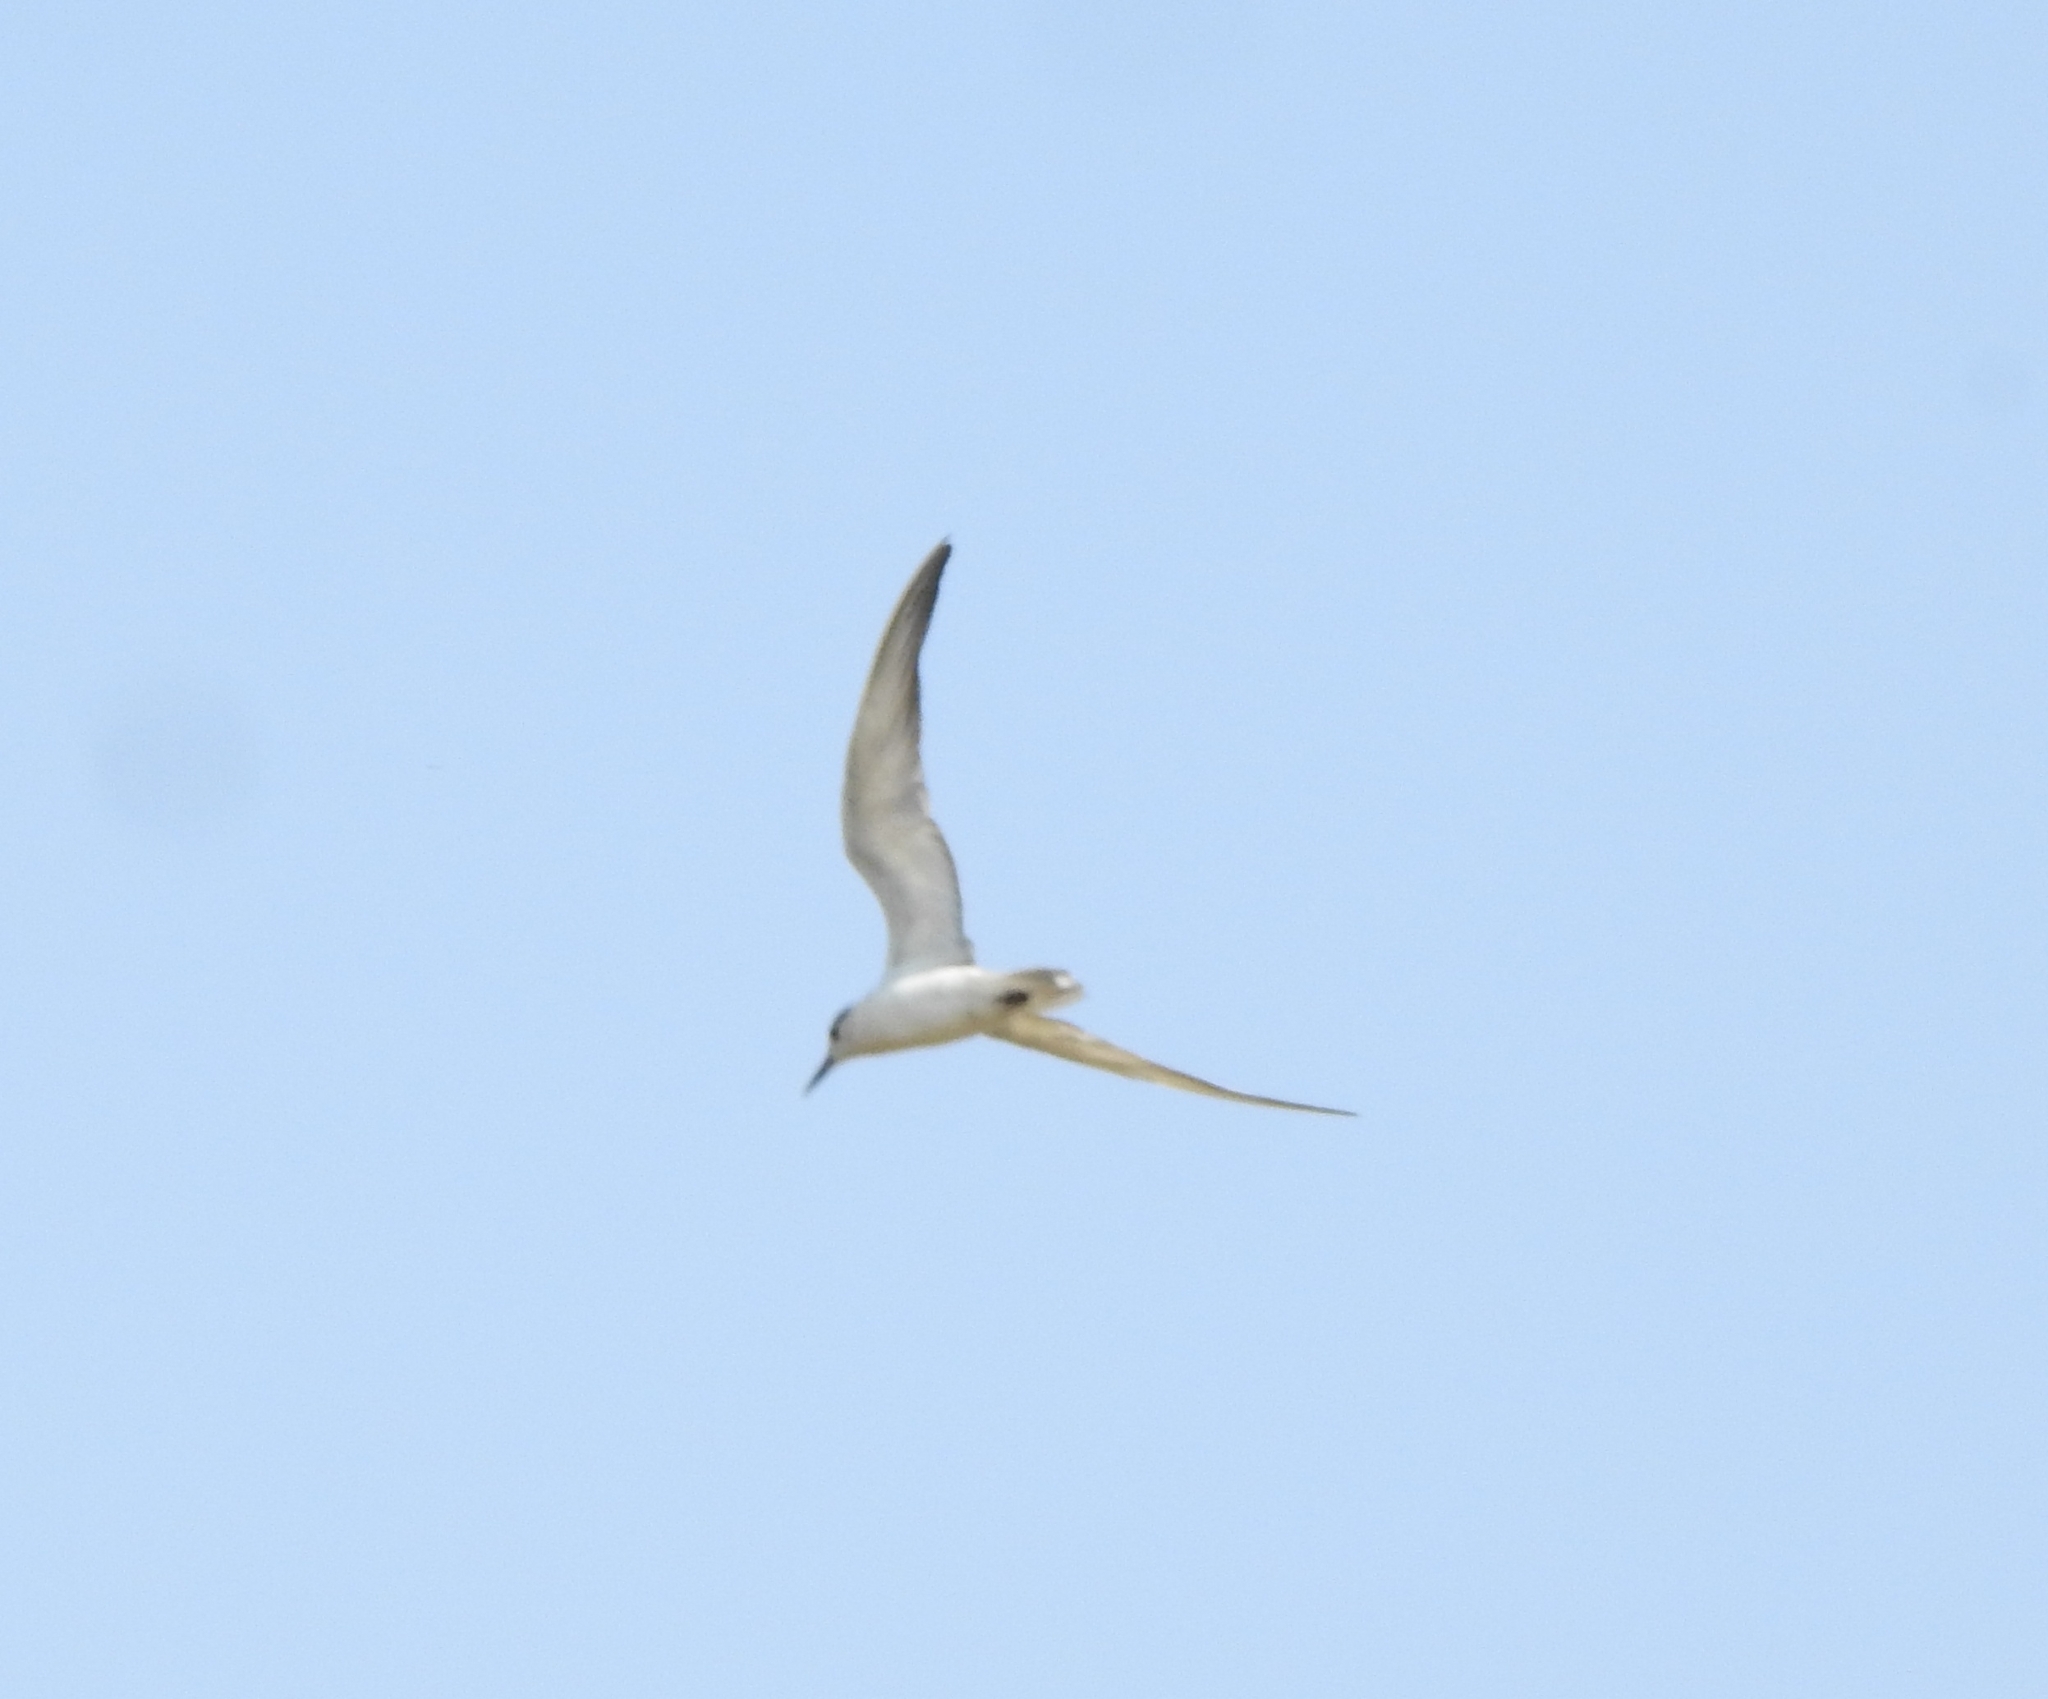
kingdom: Animalia
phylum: Chordata
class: Aves
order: Charadriiformes
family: Laridae
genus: Chlidonias
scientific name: Chlidonias hybrida
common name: Whiskered tern
